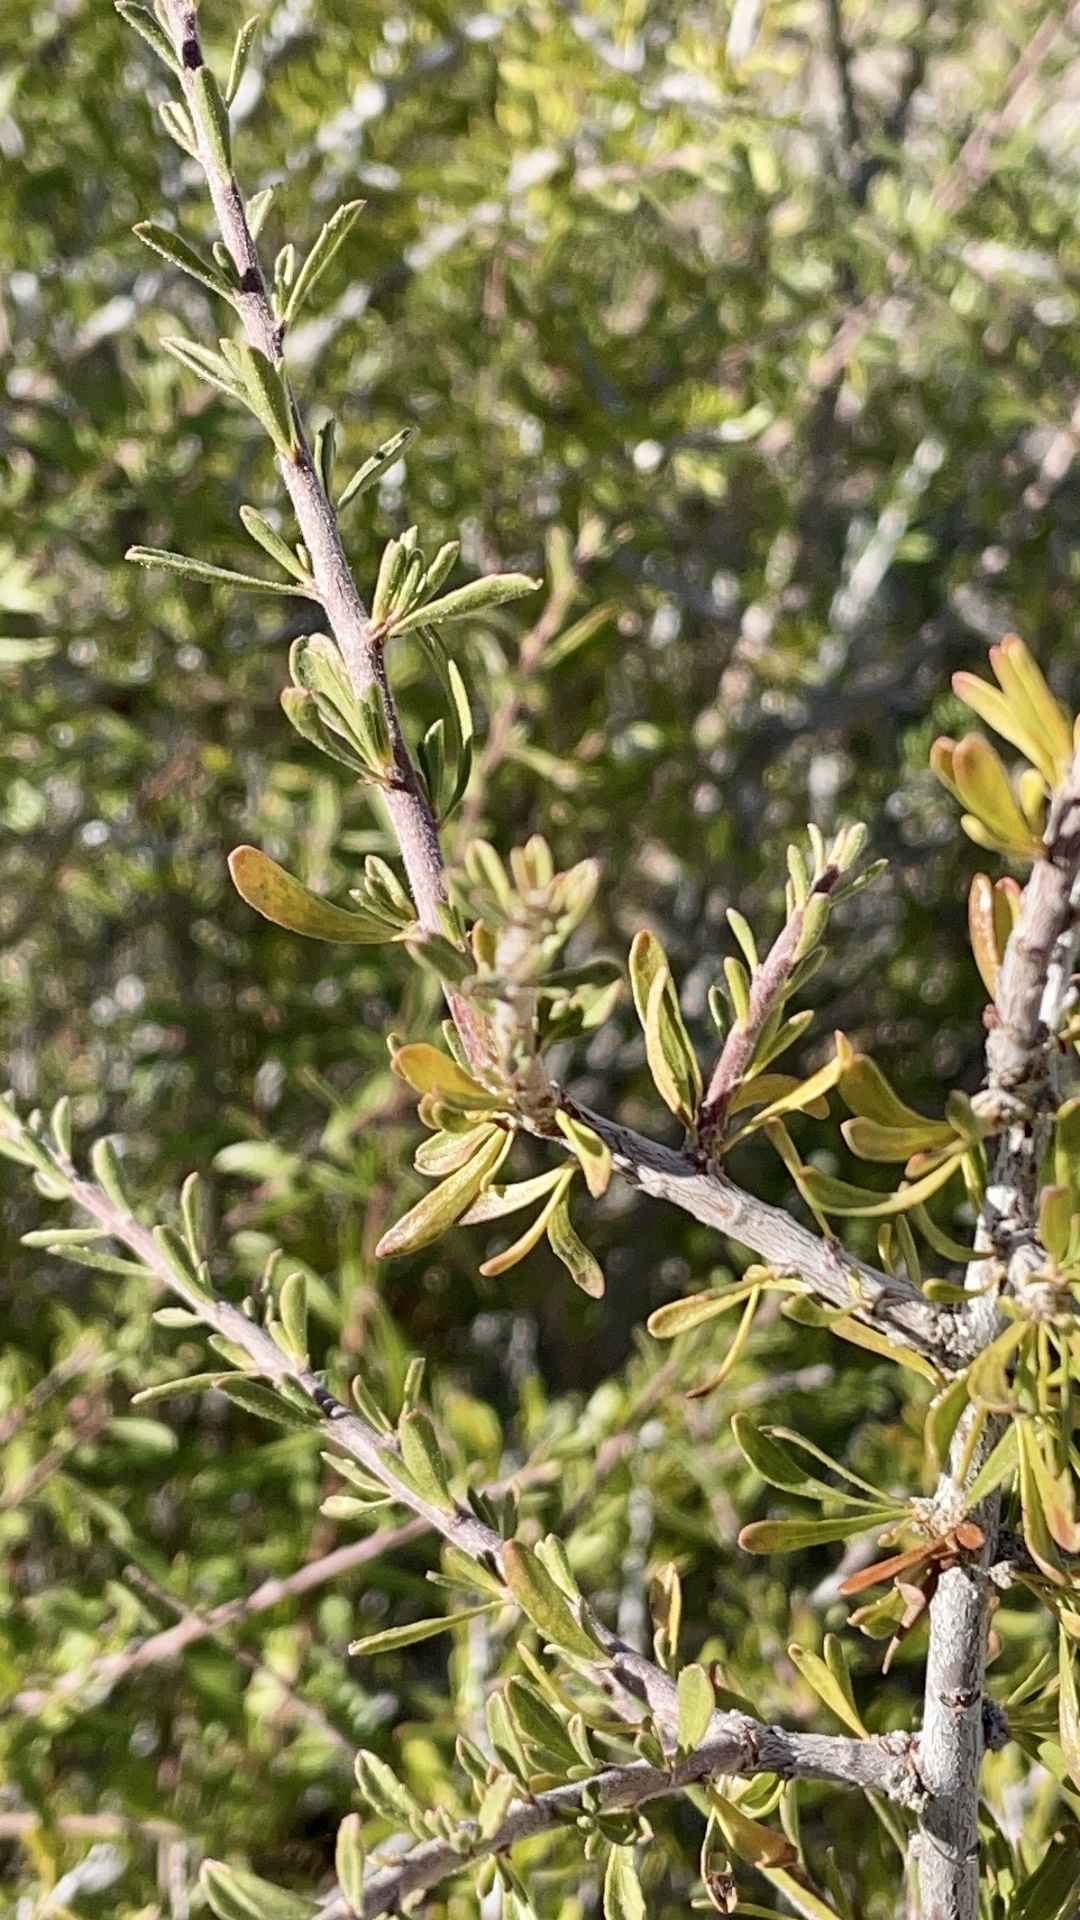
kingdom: Animalia
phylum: Arthropoda
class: Insecta
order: Lepidoptera
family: Erebidae
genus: Litocala
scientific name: Litocala sexsignata
